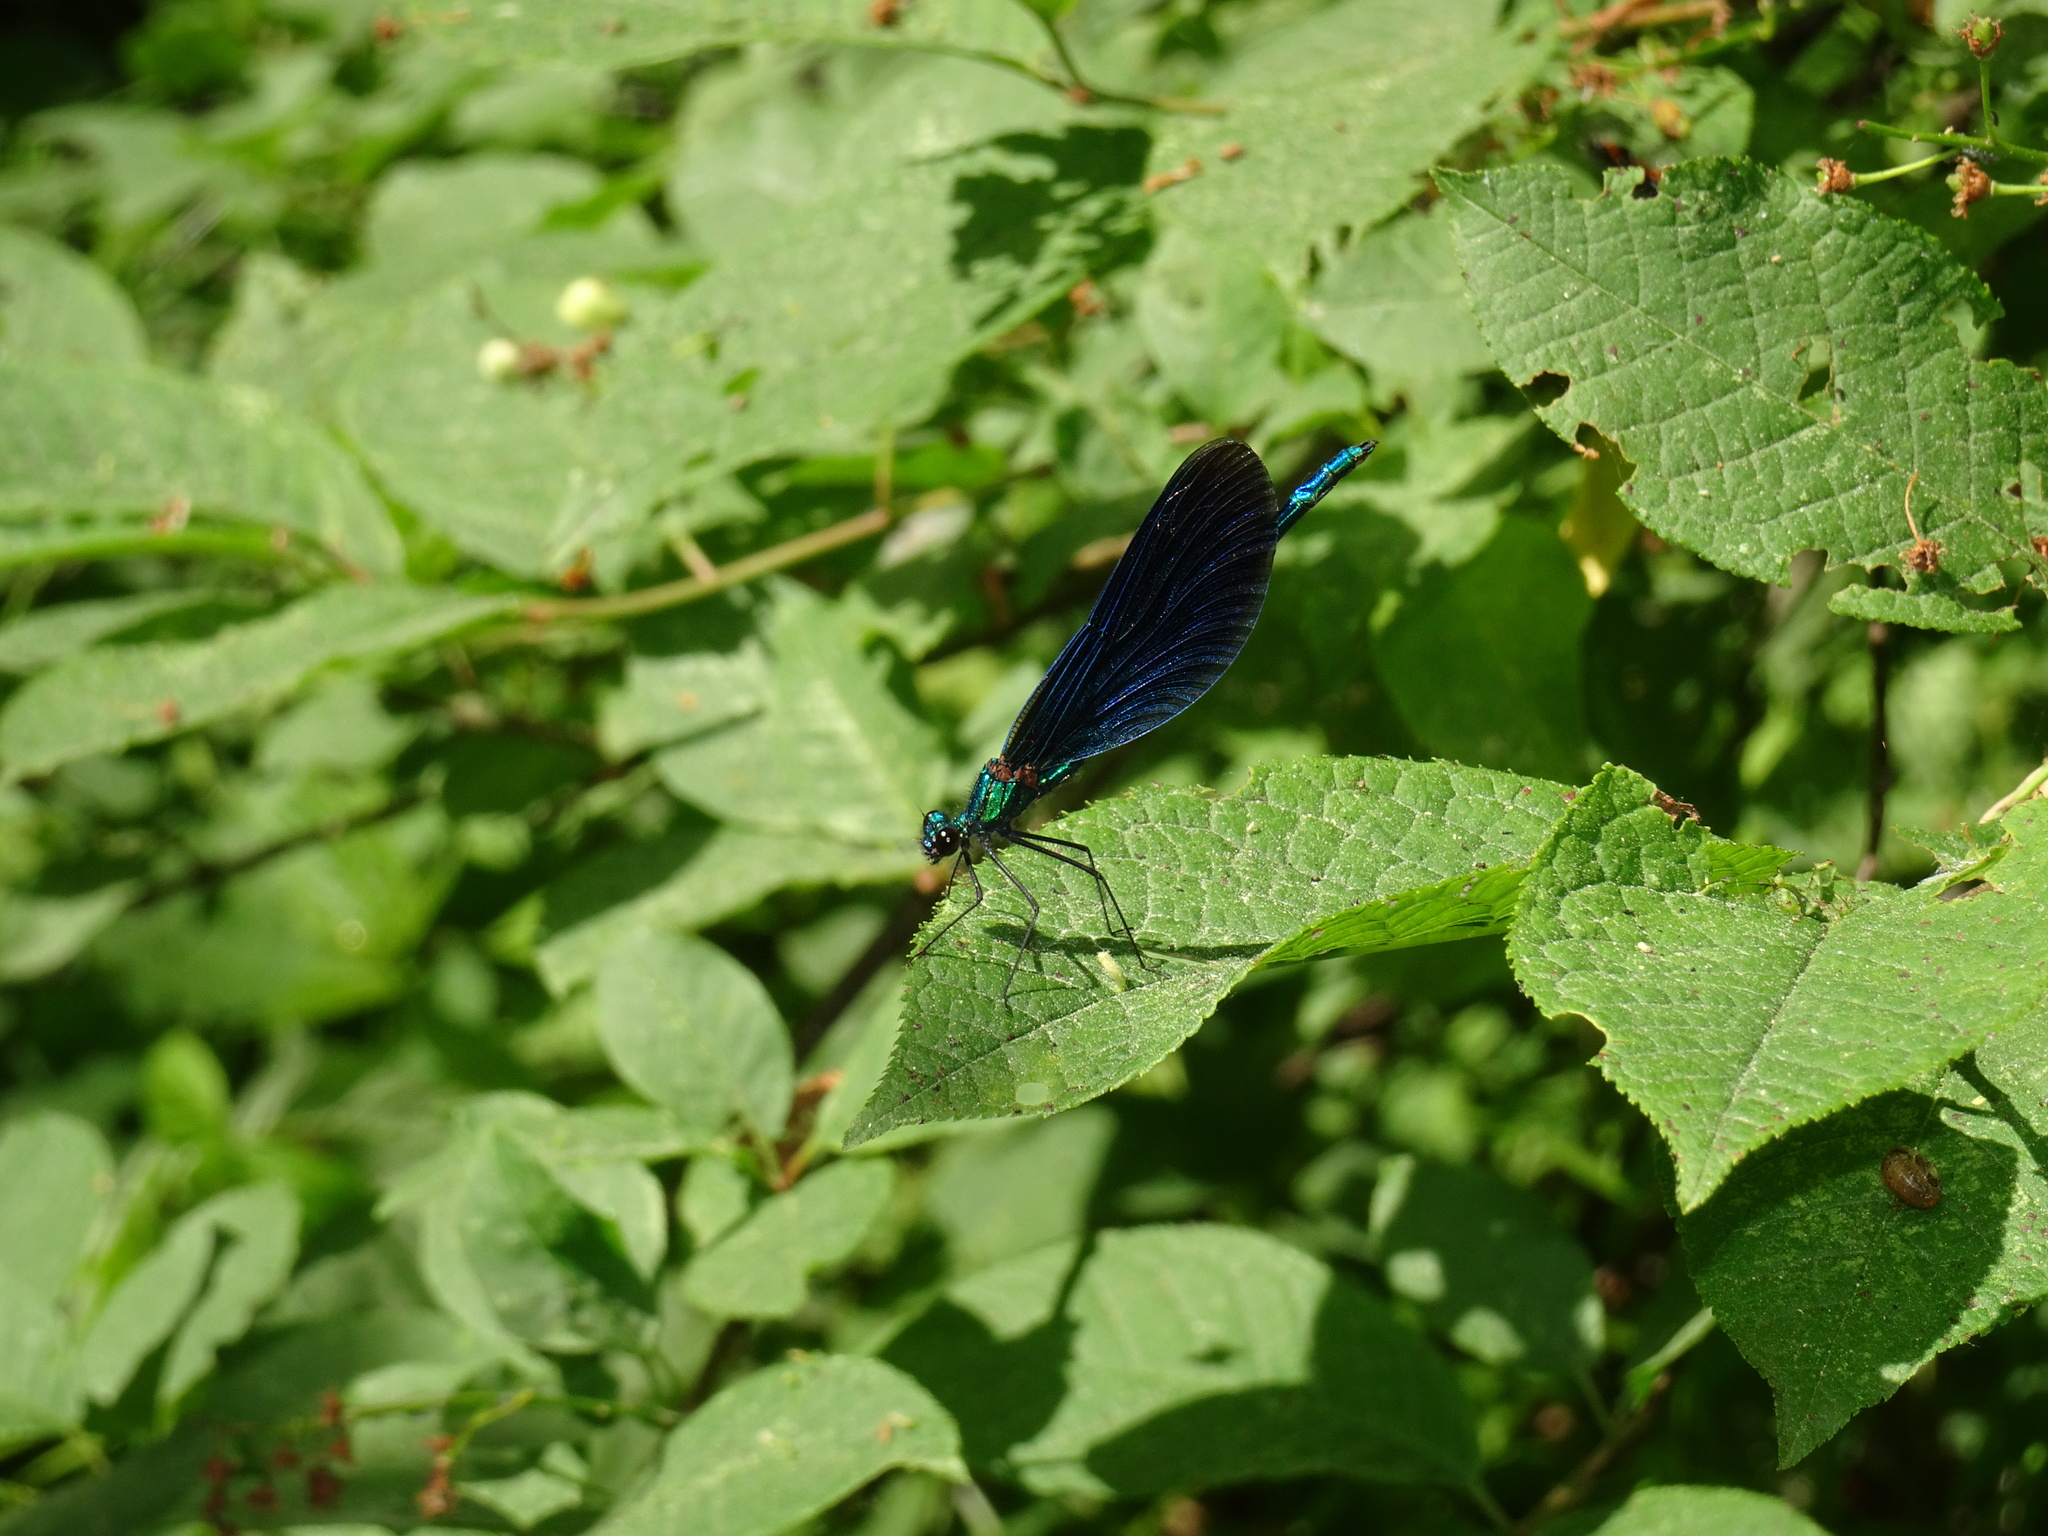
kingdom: Animalia
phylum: Arthropoda
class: Insecta
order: Odonata
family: Calopterygidae
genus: Calopteryx
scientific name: Calopteryx virgo
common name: Beautiful demoiselle
